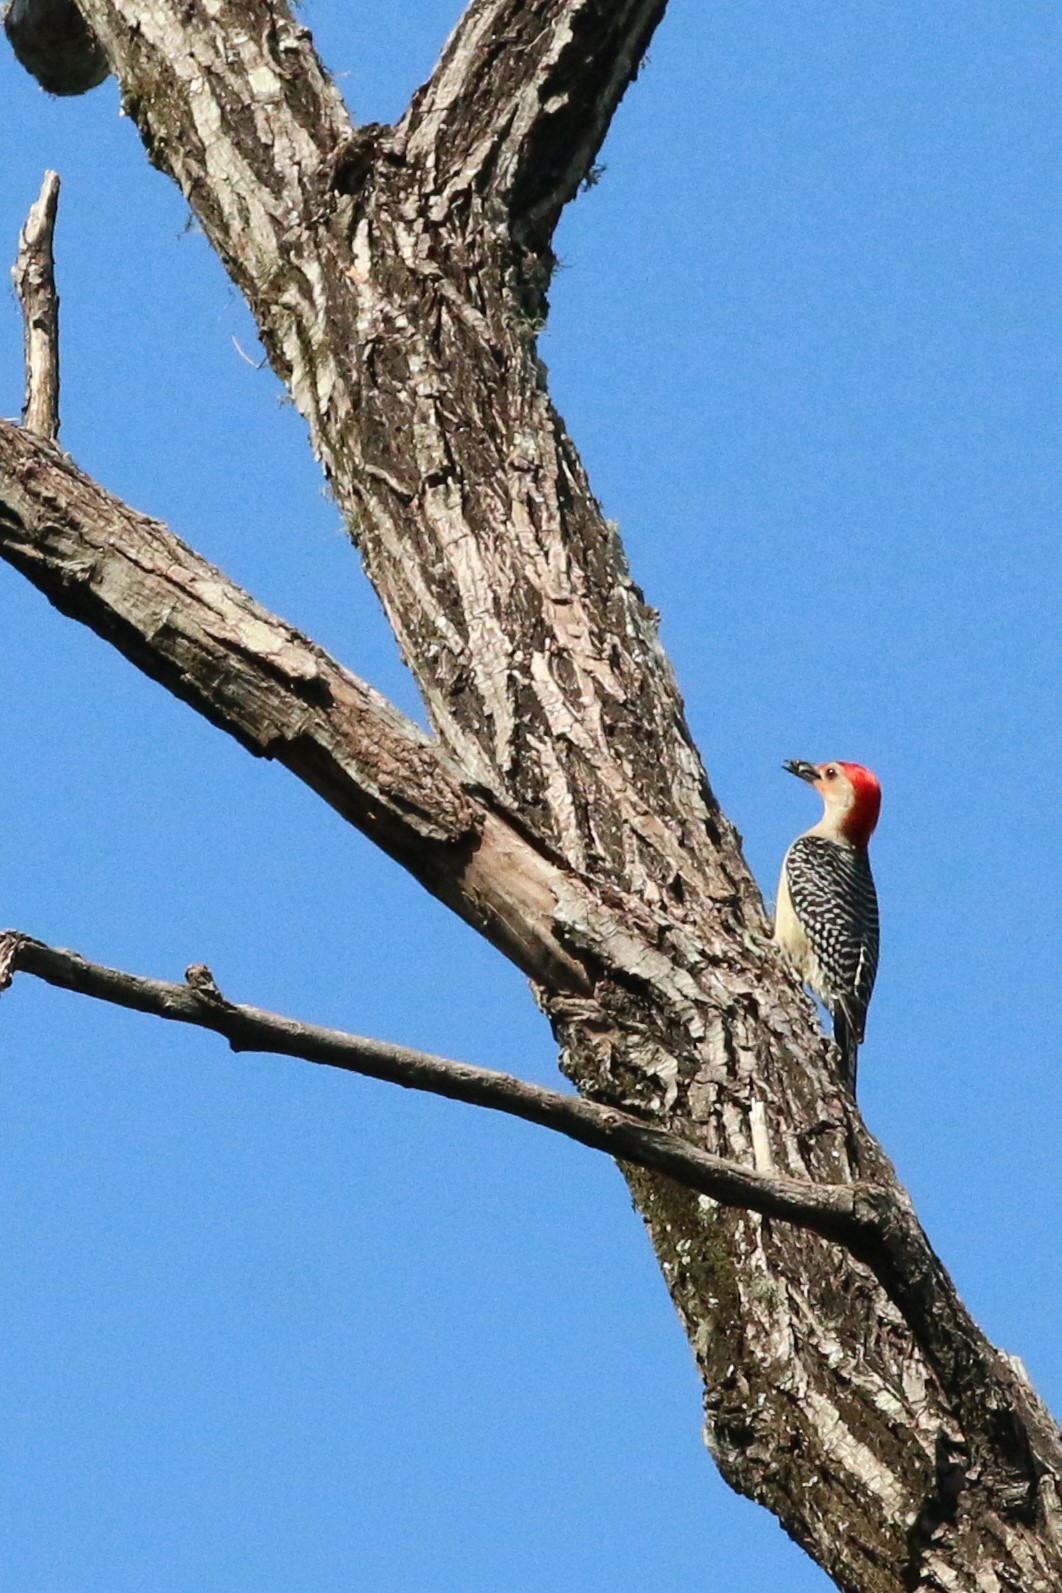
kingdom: Animalia
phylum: Chordata
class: Aves
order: Piciformes
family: Picidae
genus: Melanerpes
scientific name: Melanerpes carolinus
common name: Red-bellied woodpecker
